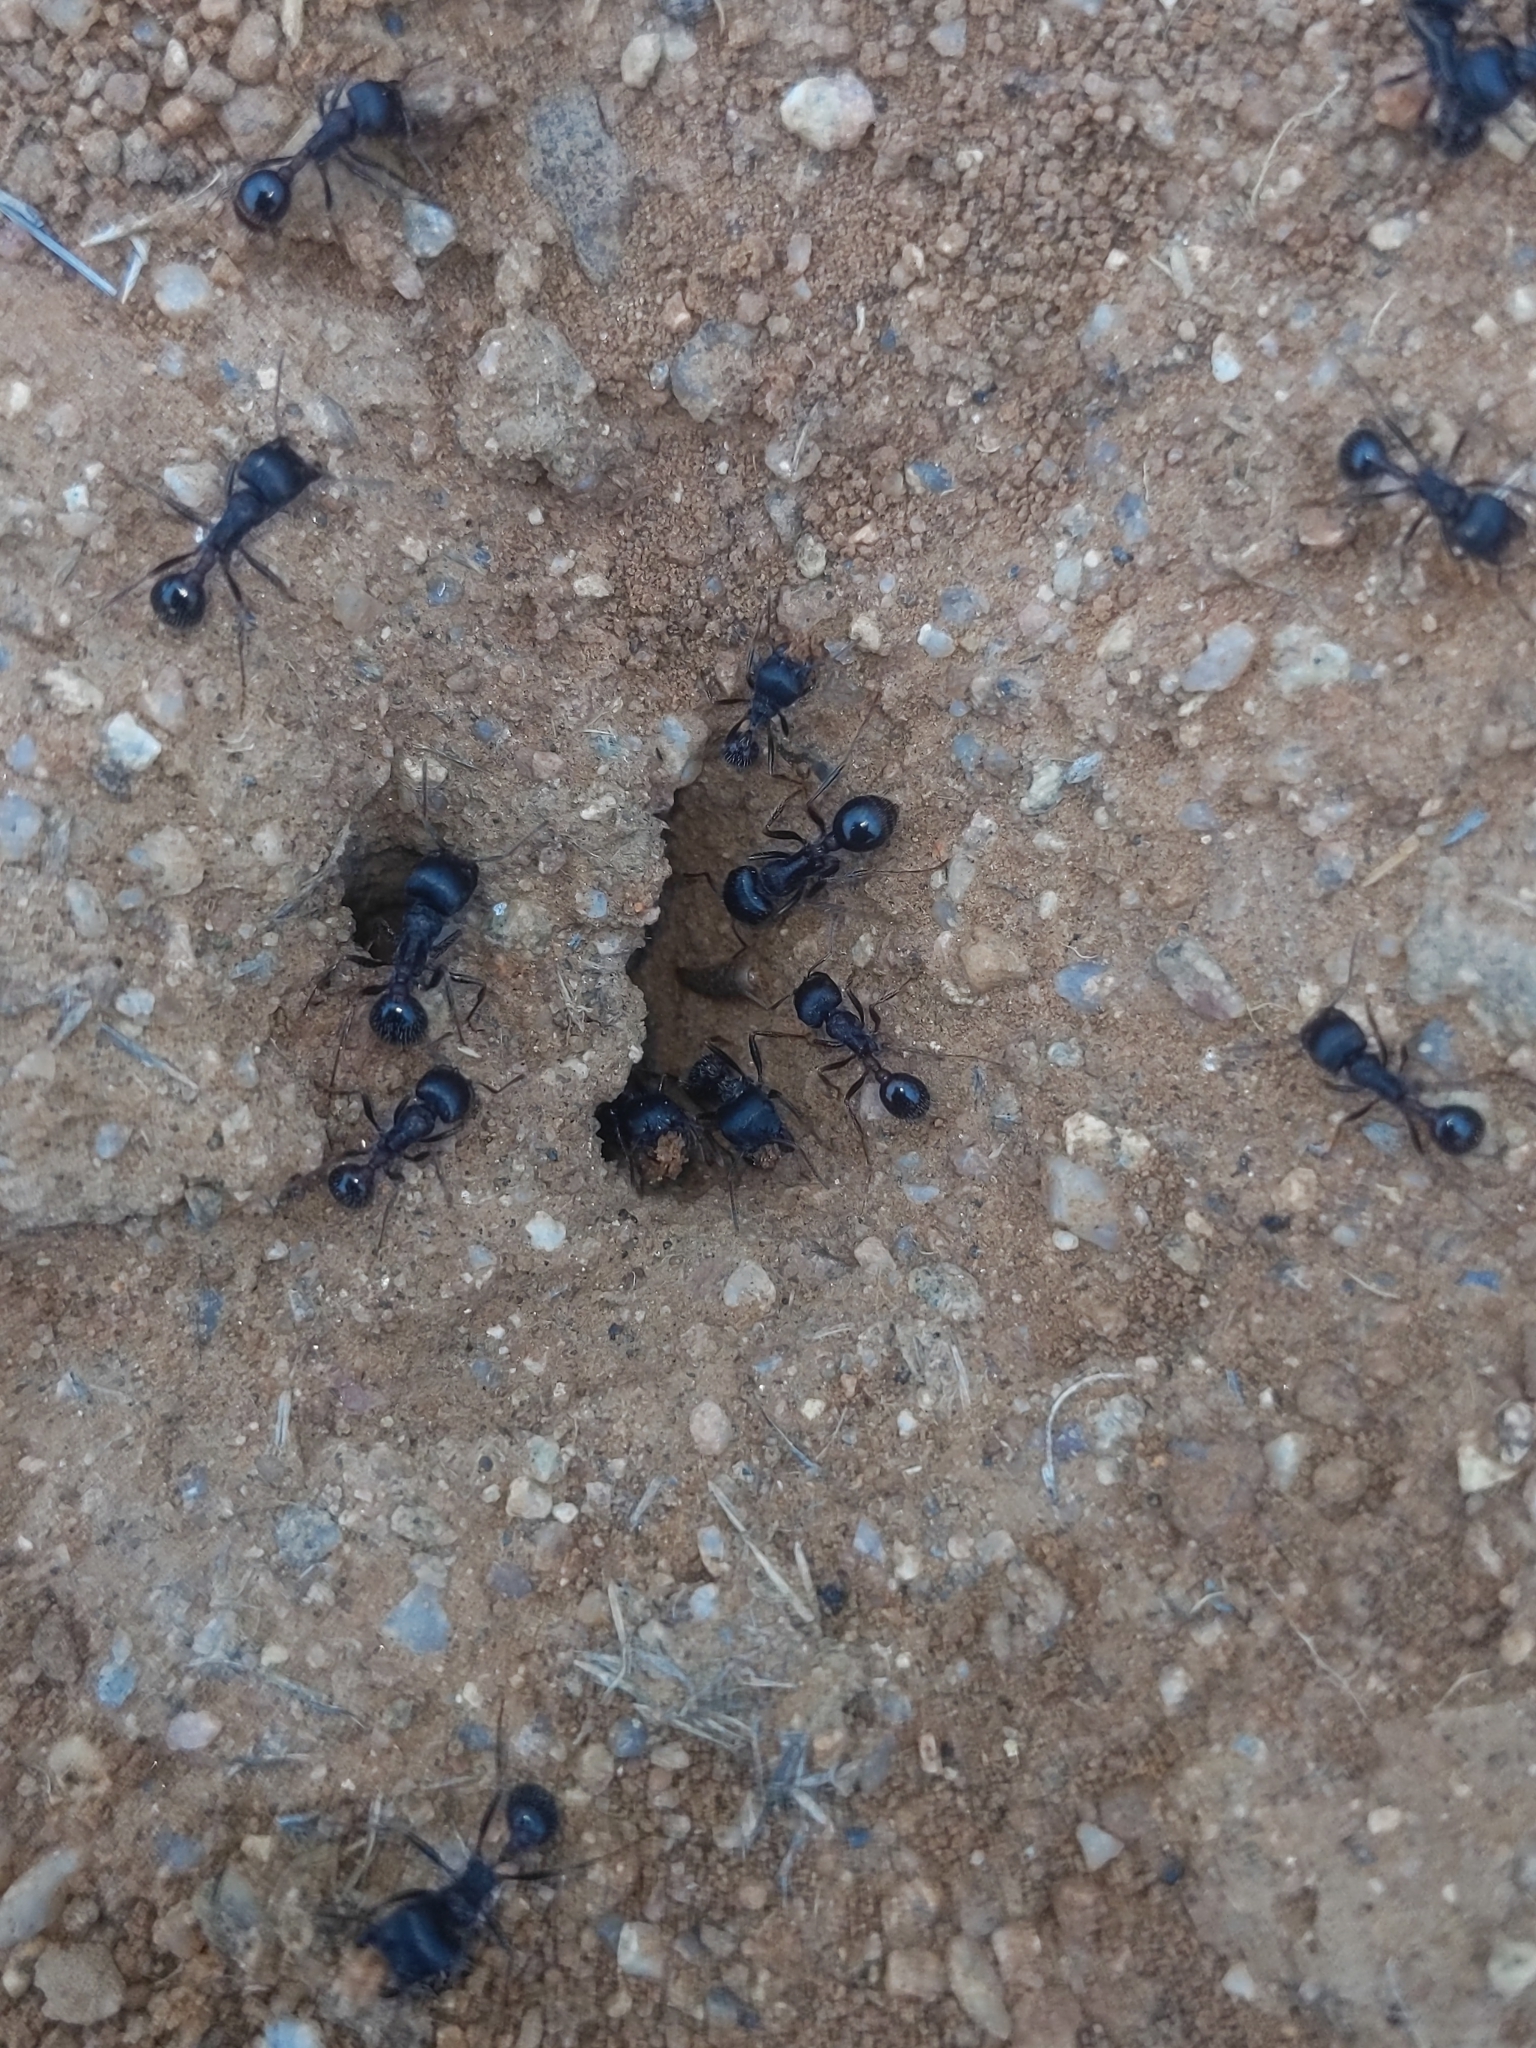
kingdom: Animalia
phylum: Arthropoda
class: Insecta
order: Hymenoptera
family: Formicidae
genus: Pogonomyrmex
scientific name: Pogonomyrmex rugosus
